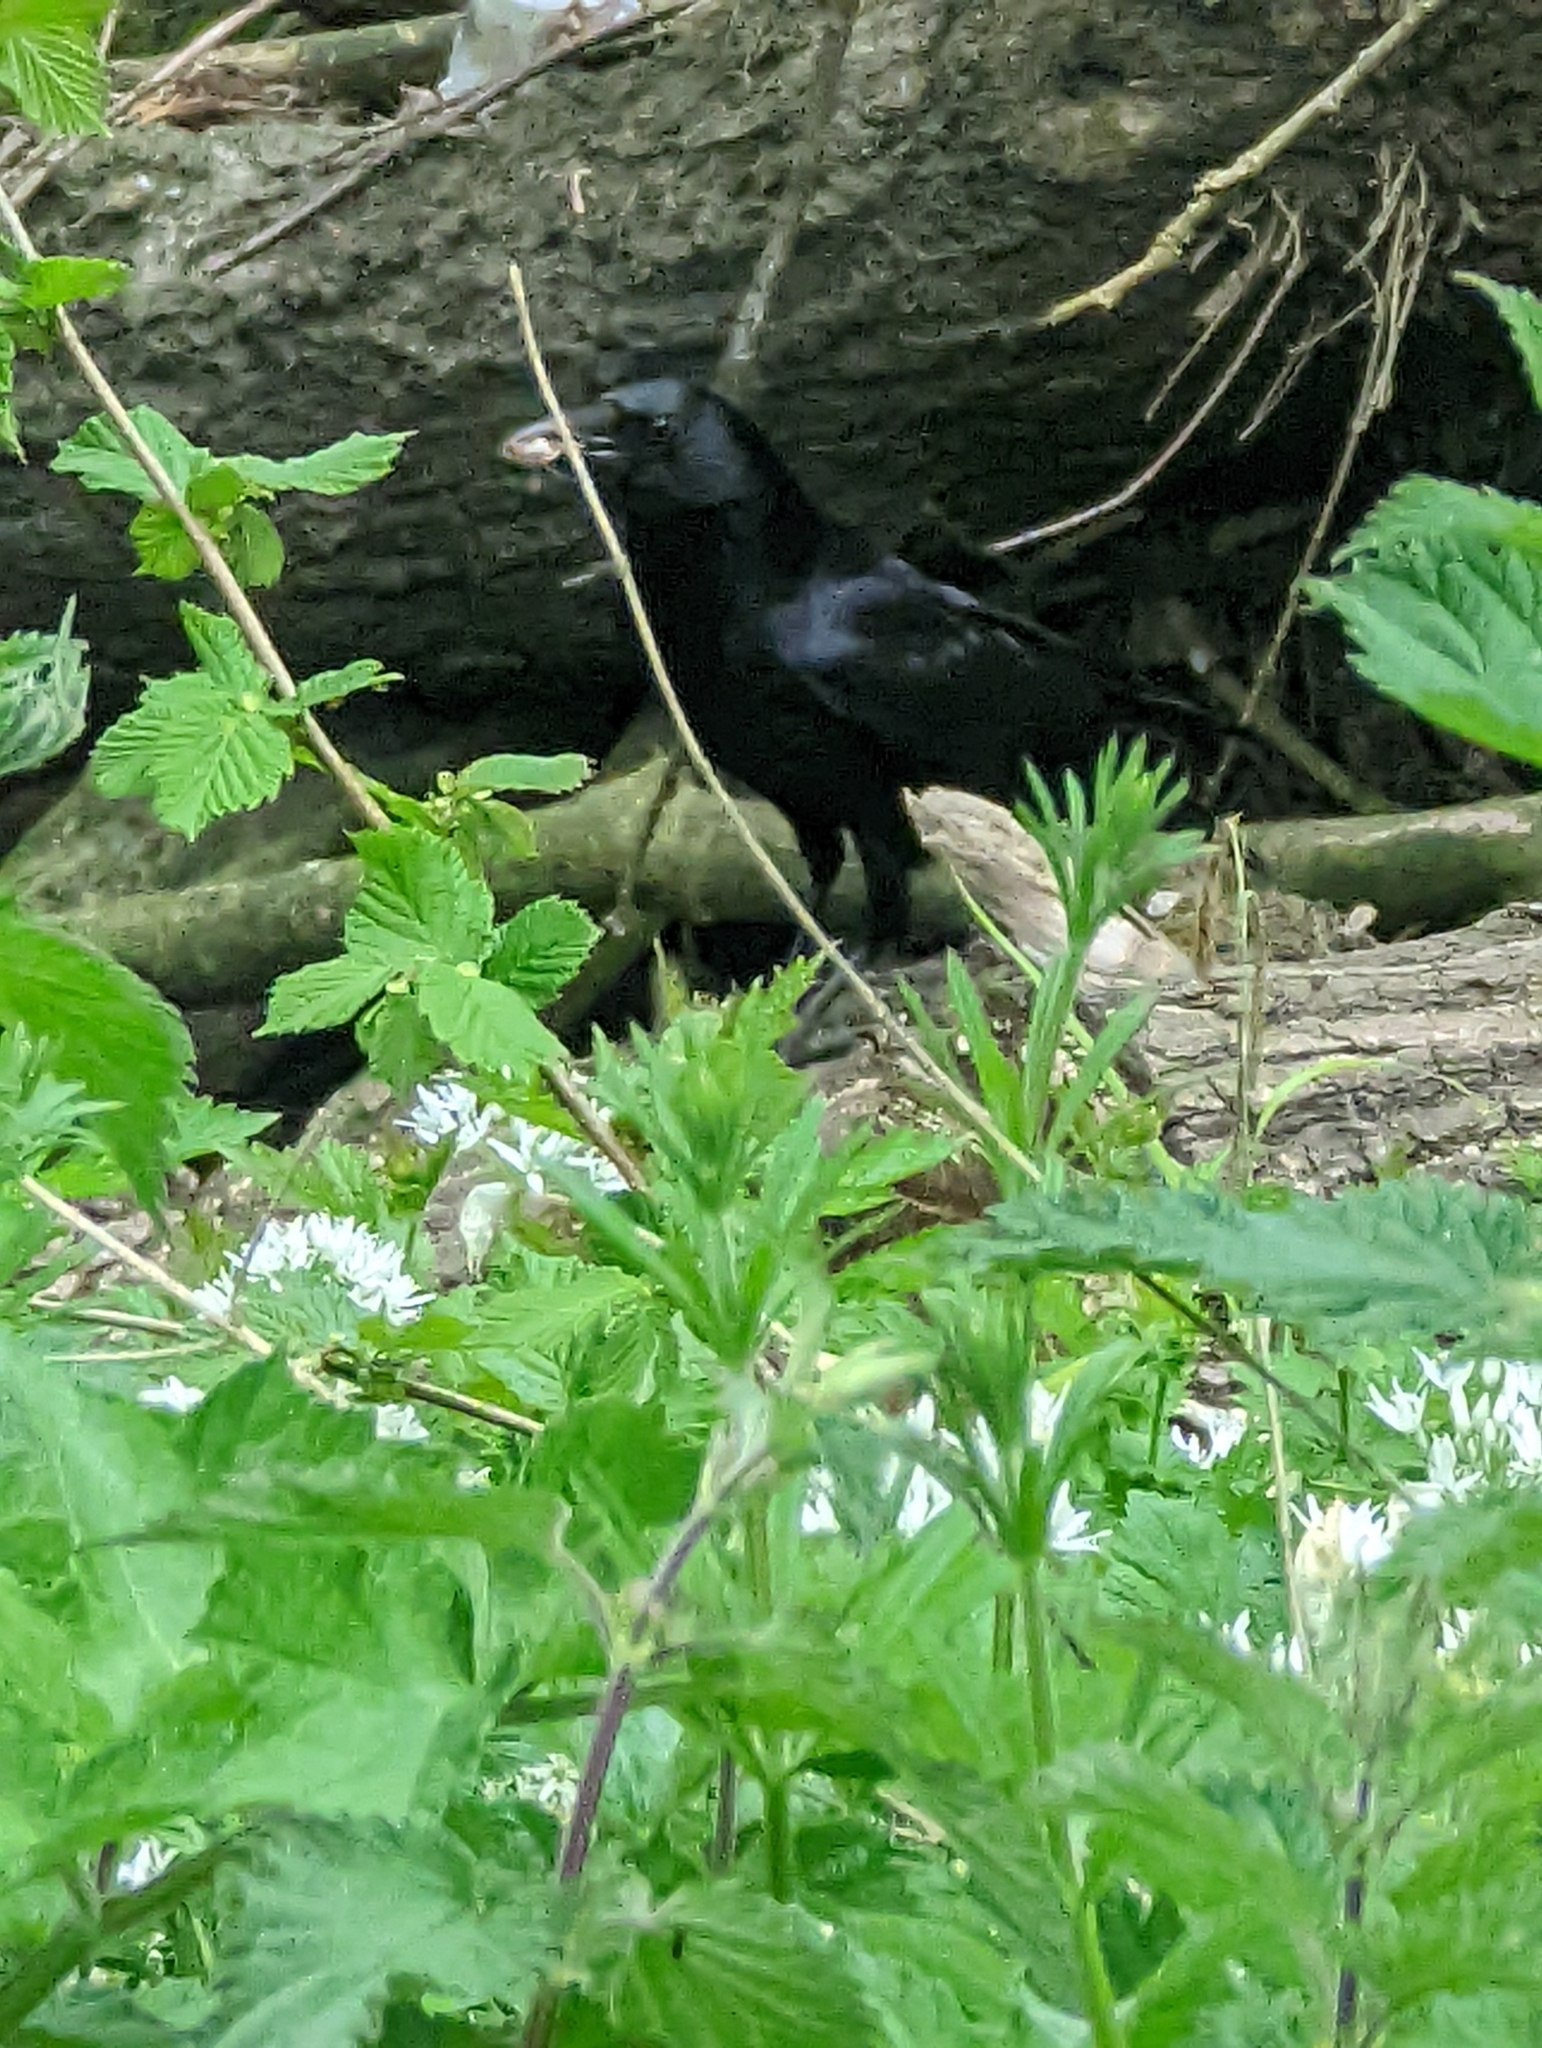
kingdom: Animalia
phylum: Chordata
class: Aves
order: Passeriformes
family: Corvidae
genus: Corvus
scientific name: Corvus corone
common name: Carrion crow
